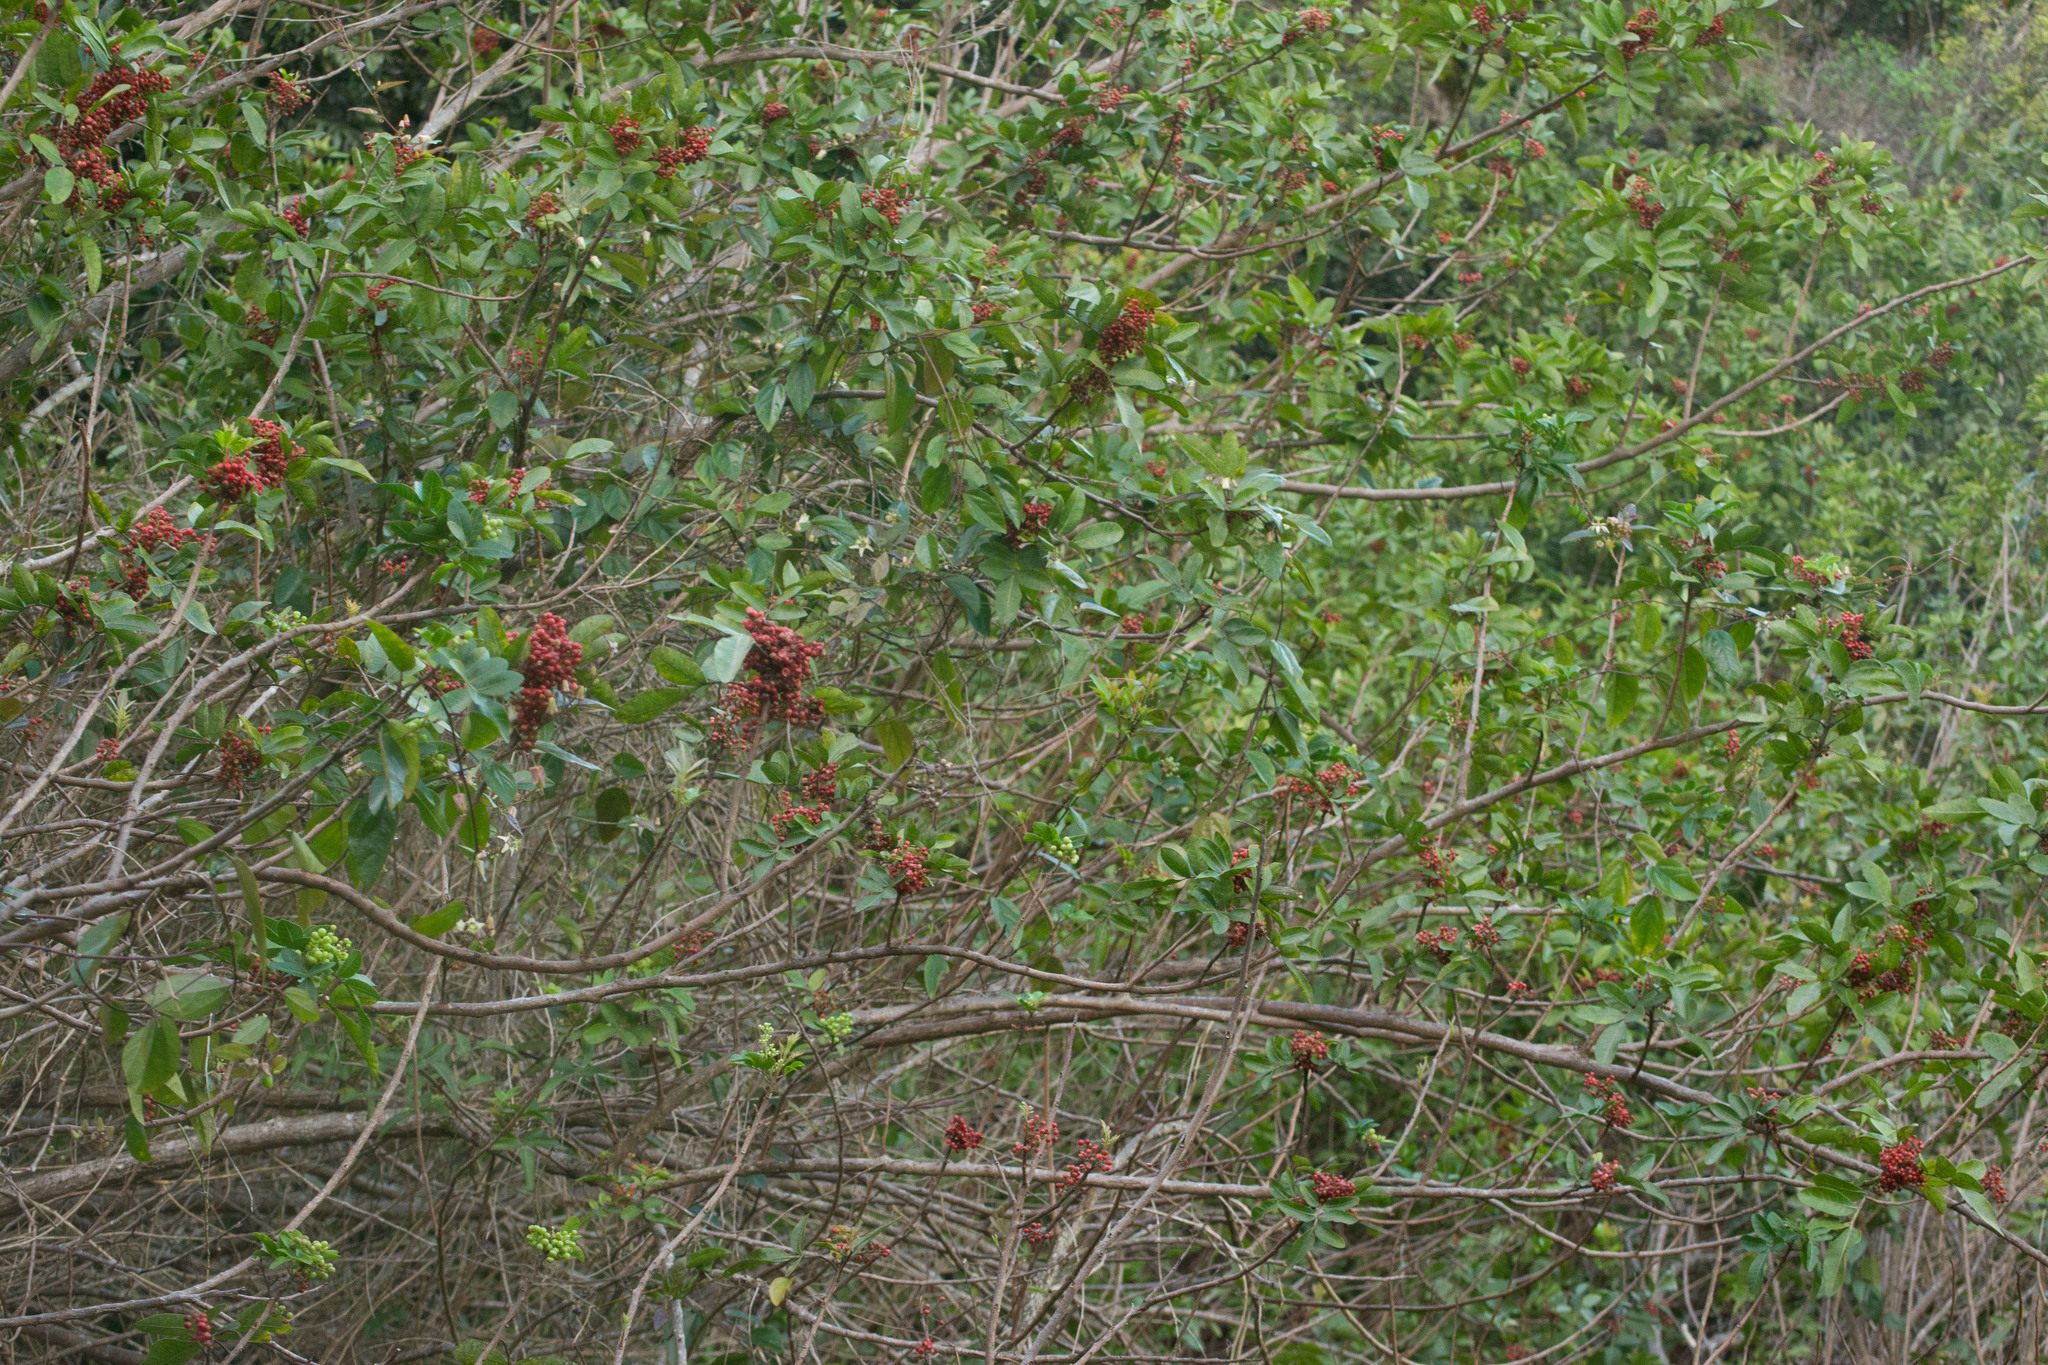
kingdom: Plantae
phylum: Tracheophyta
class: Magnoliopsida
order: Sapindales
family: Anacardiaceae
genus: Schinus
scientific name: Schinus terebinthifolia
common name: Brazilian peppertree
